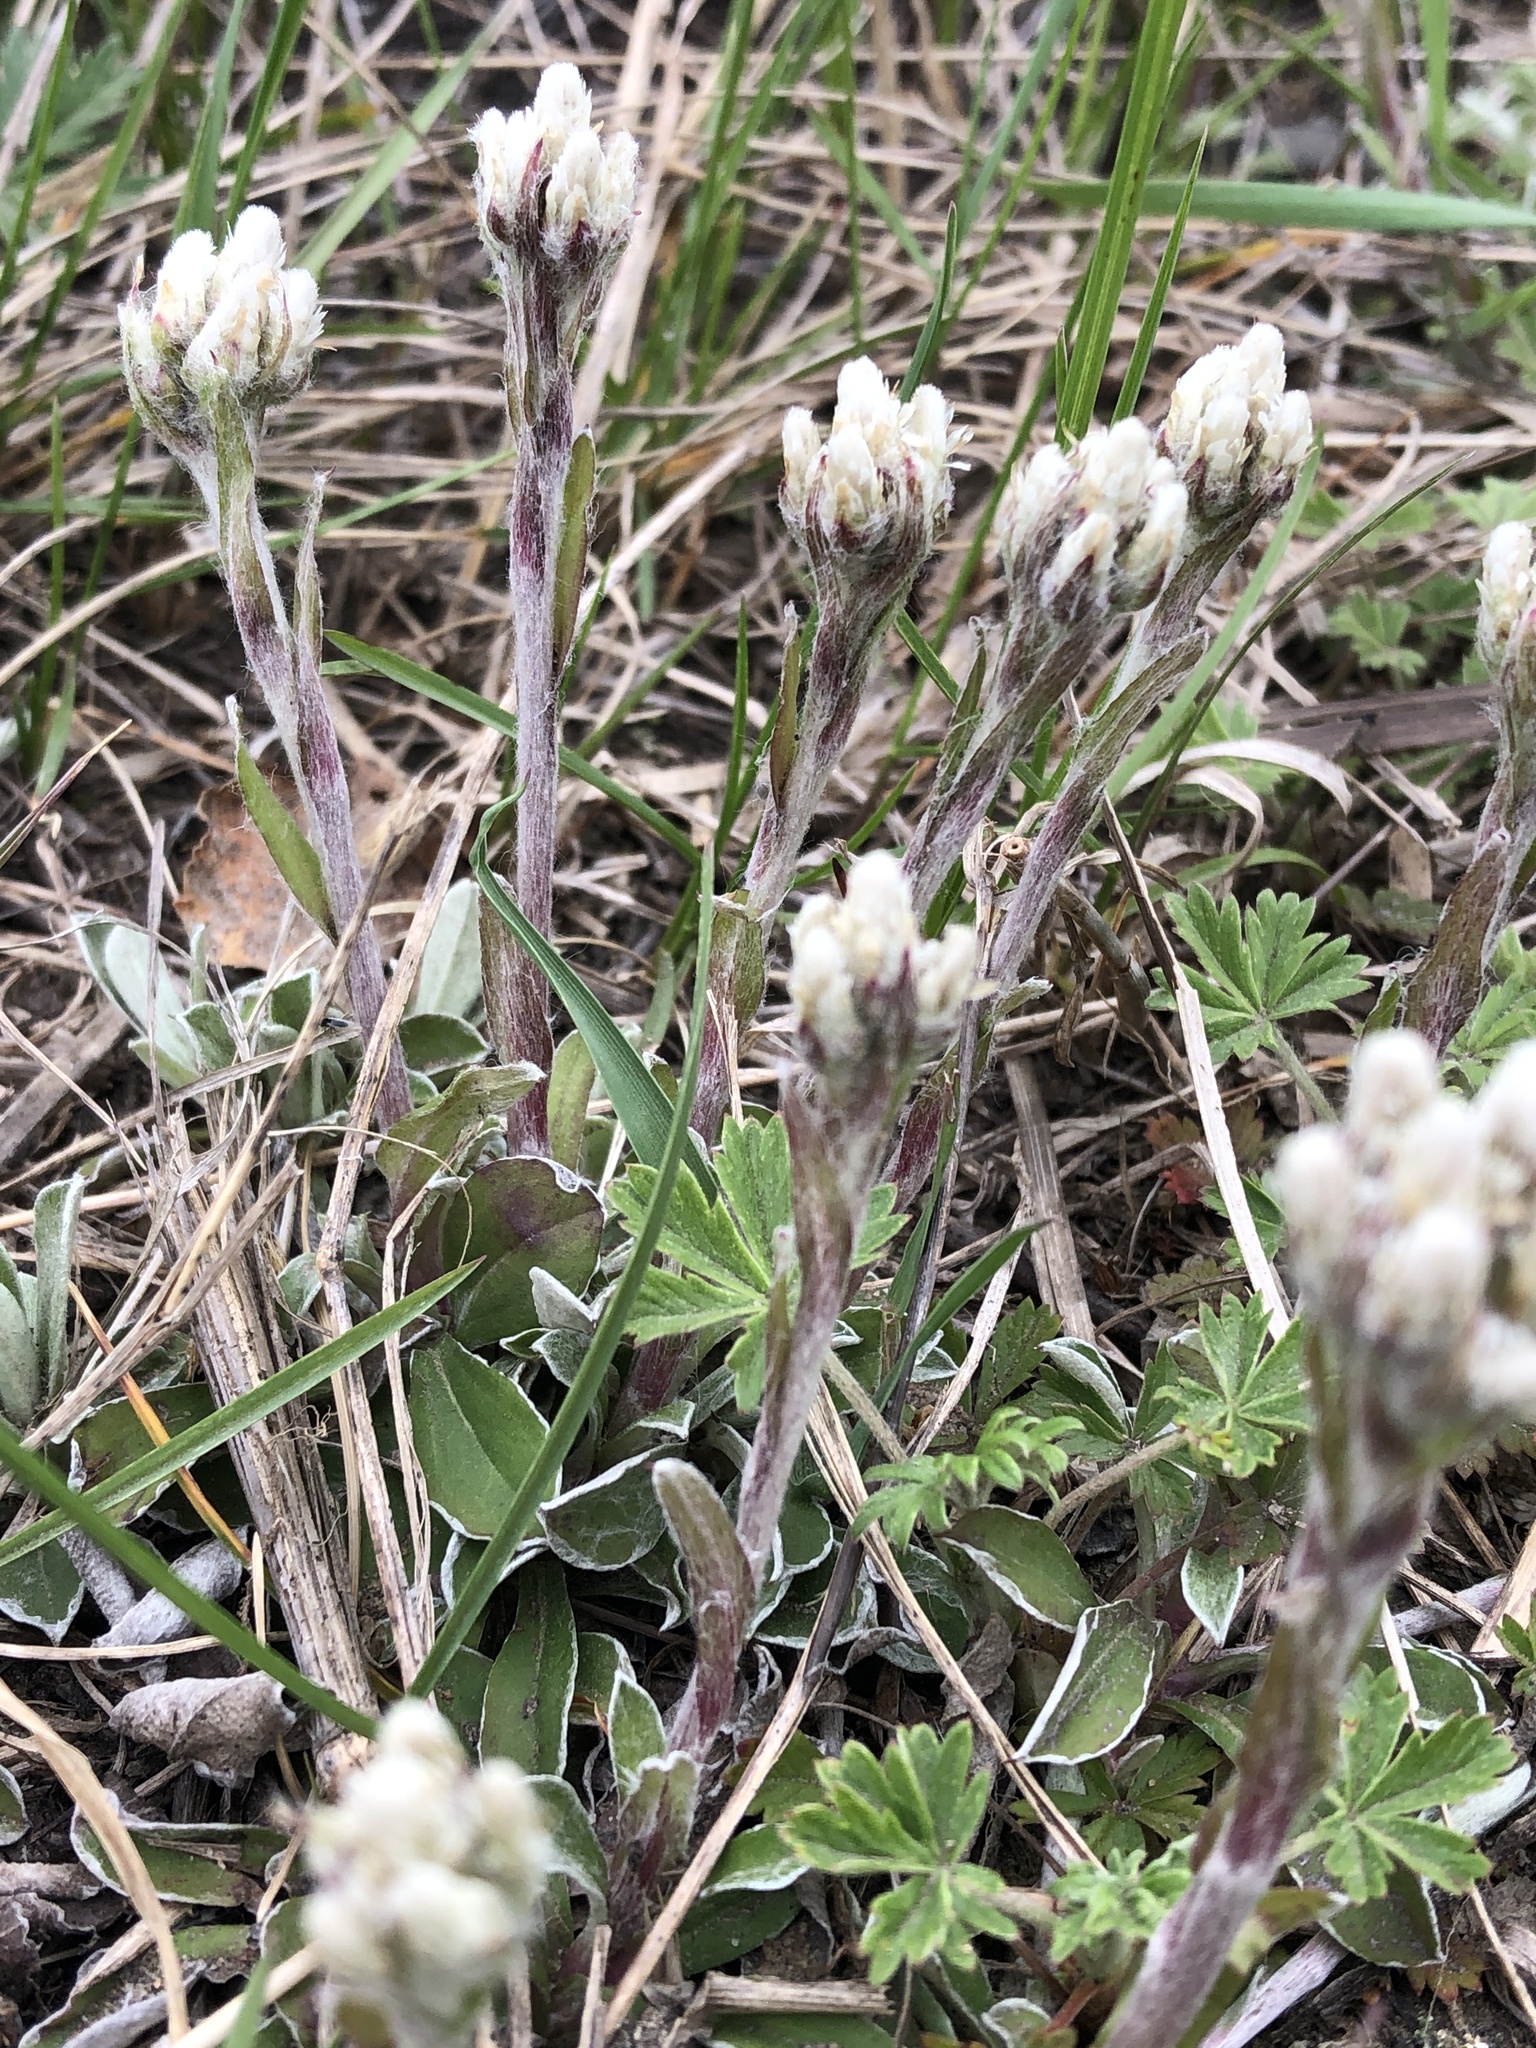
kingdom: Plantae
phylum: Tracheophyta
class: Magnoliopsida
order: Asterales
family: Asteraceae
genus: Antennaria
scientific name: Antennaria howellii
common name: Howell's pussytoes
